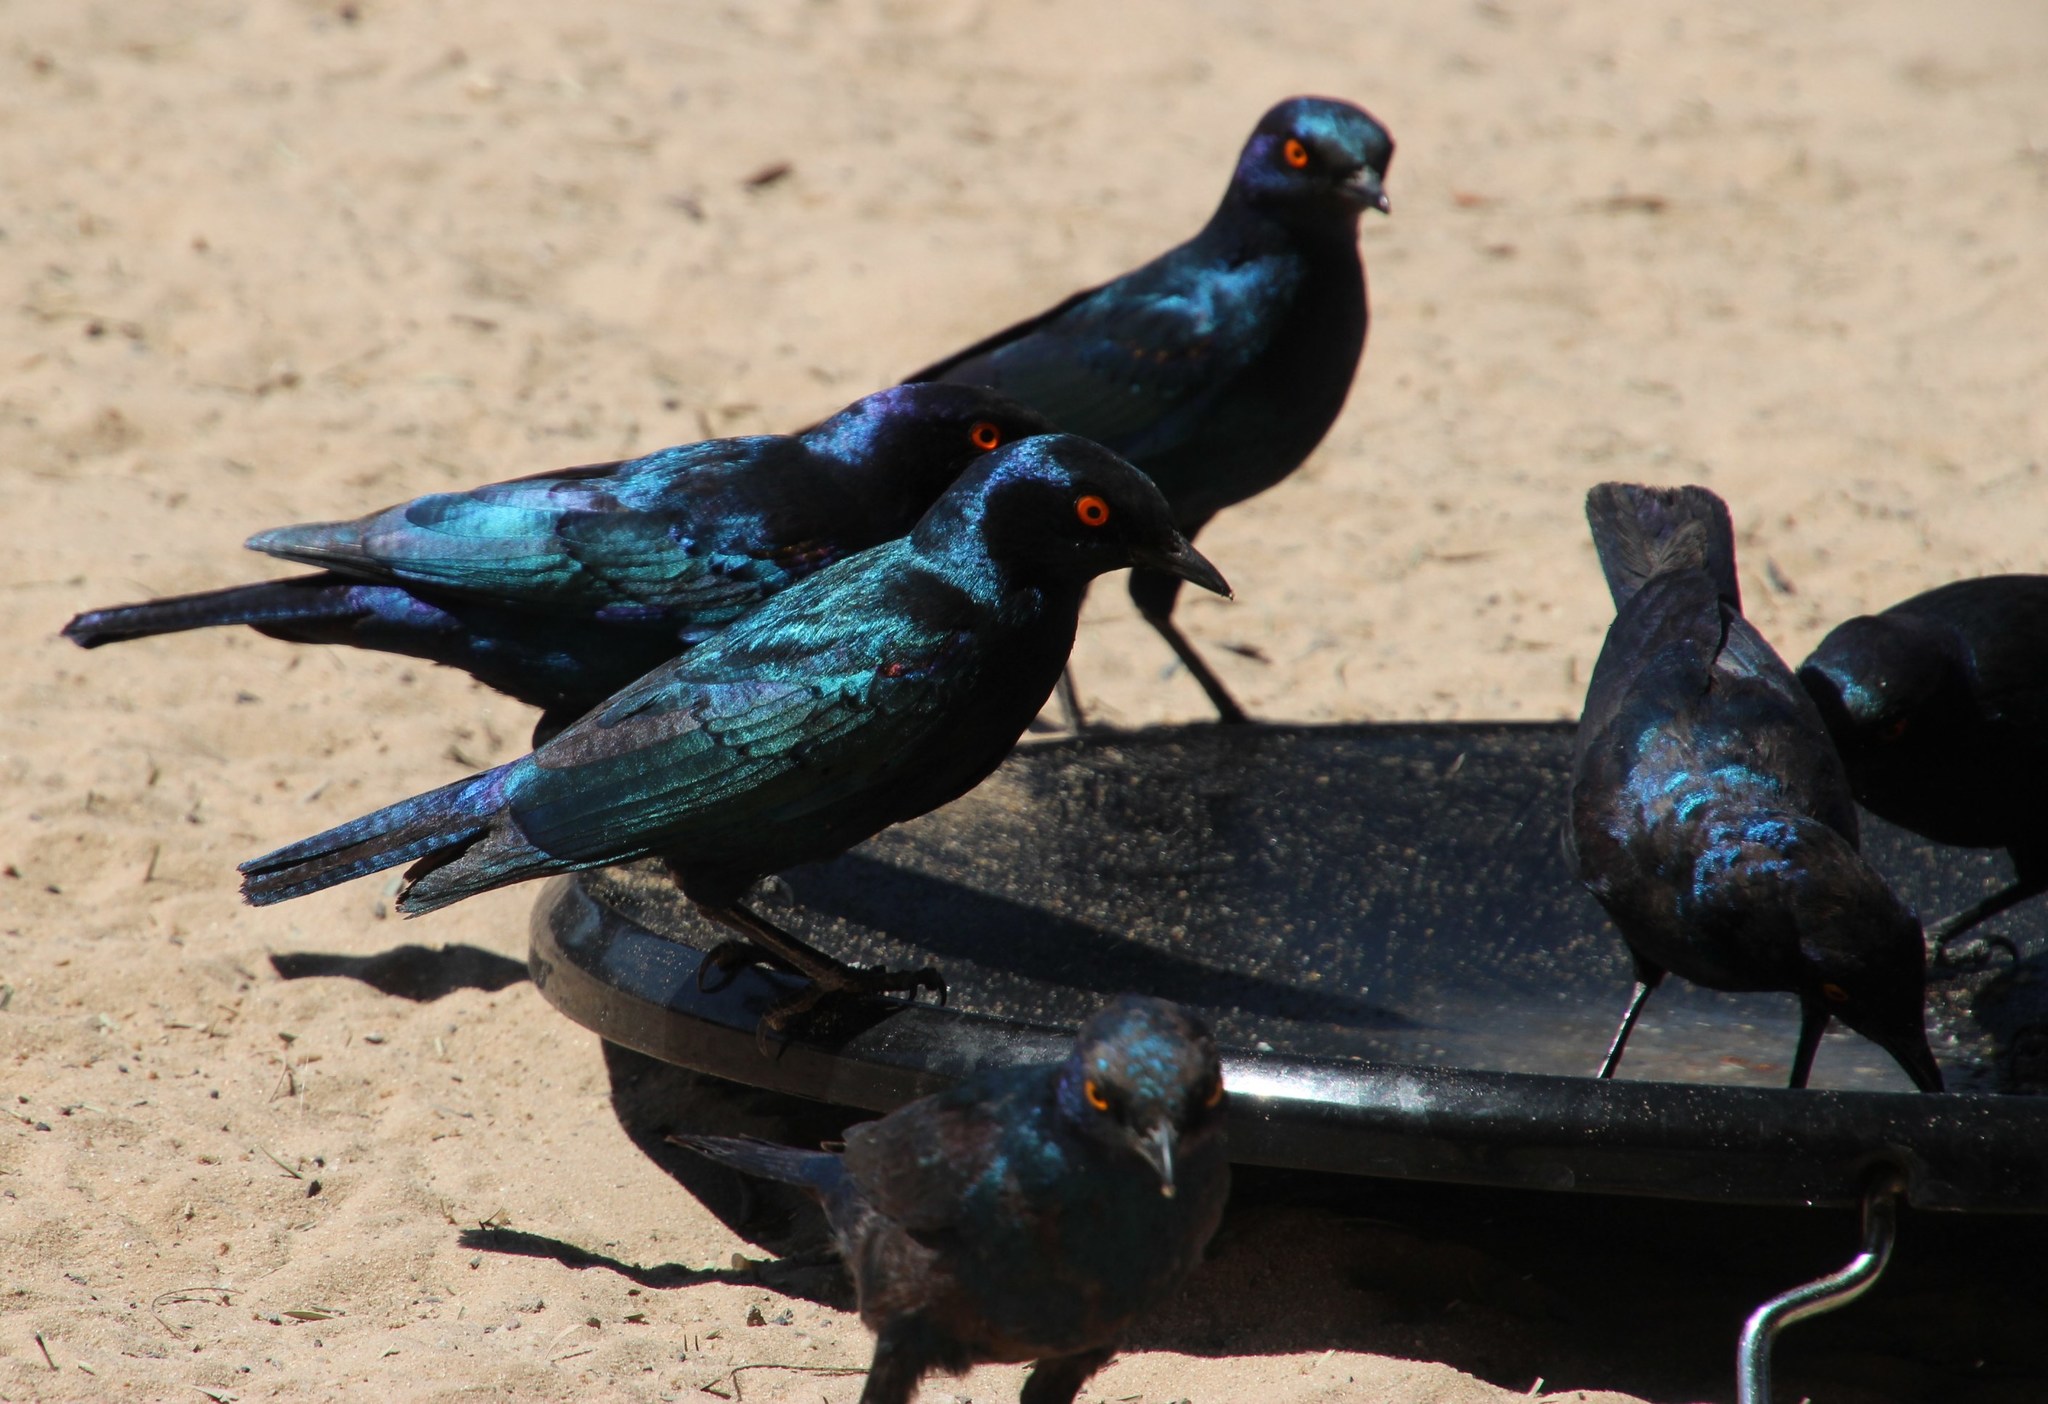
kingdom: Animalia
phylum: Chordata
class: Aves
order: Passeriformes
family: Sturnidae
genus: Lamprotornis
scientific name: Lamprotornis nitens
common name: Cape starling
